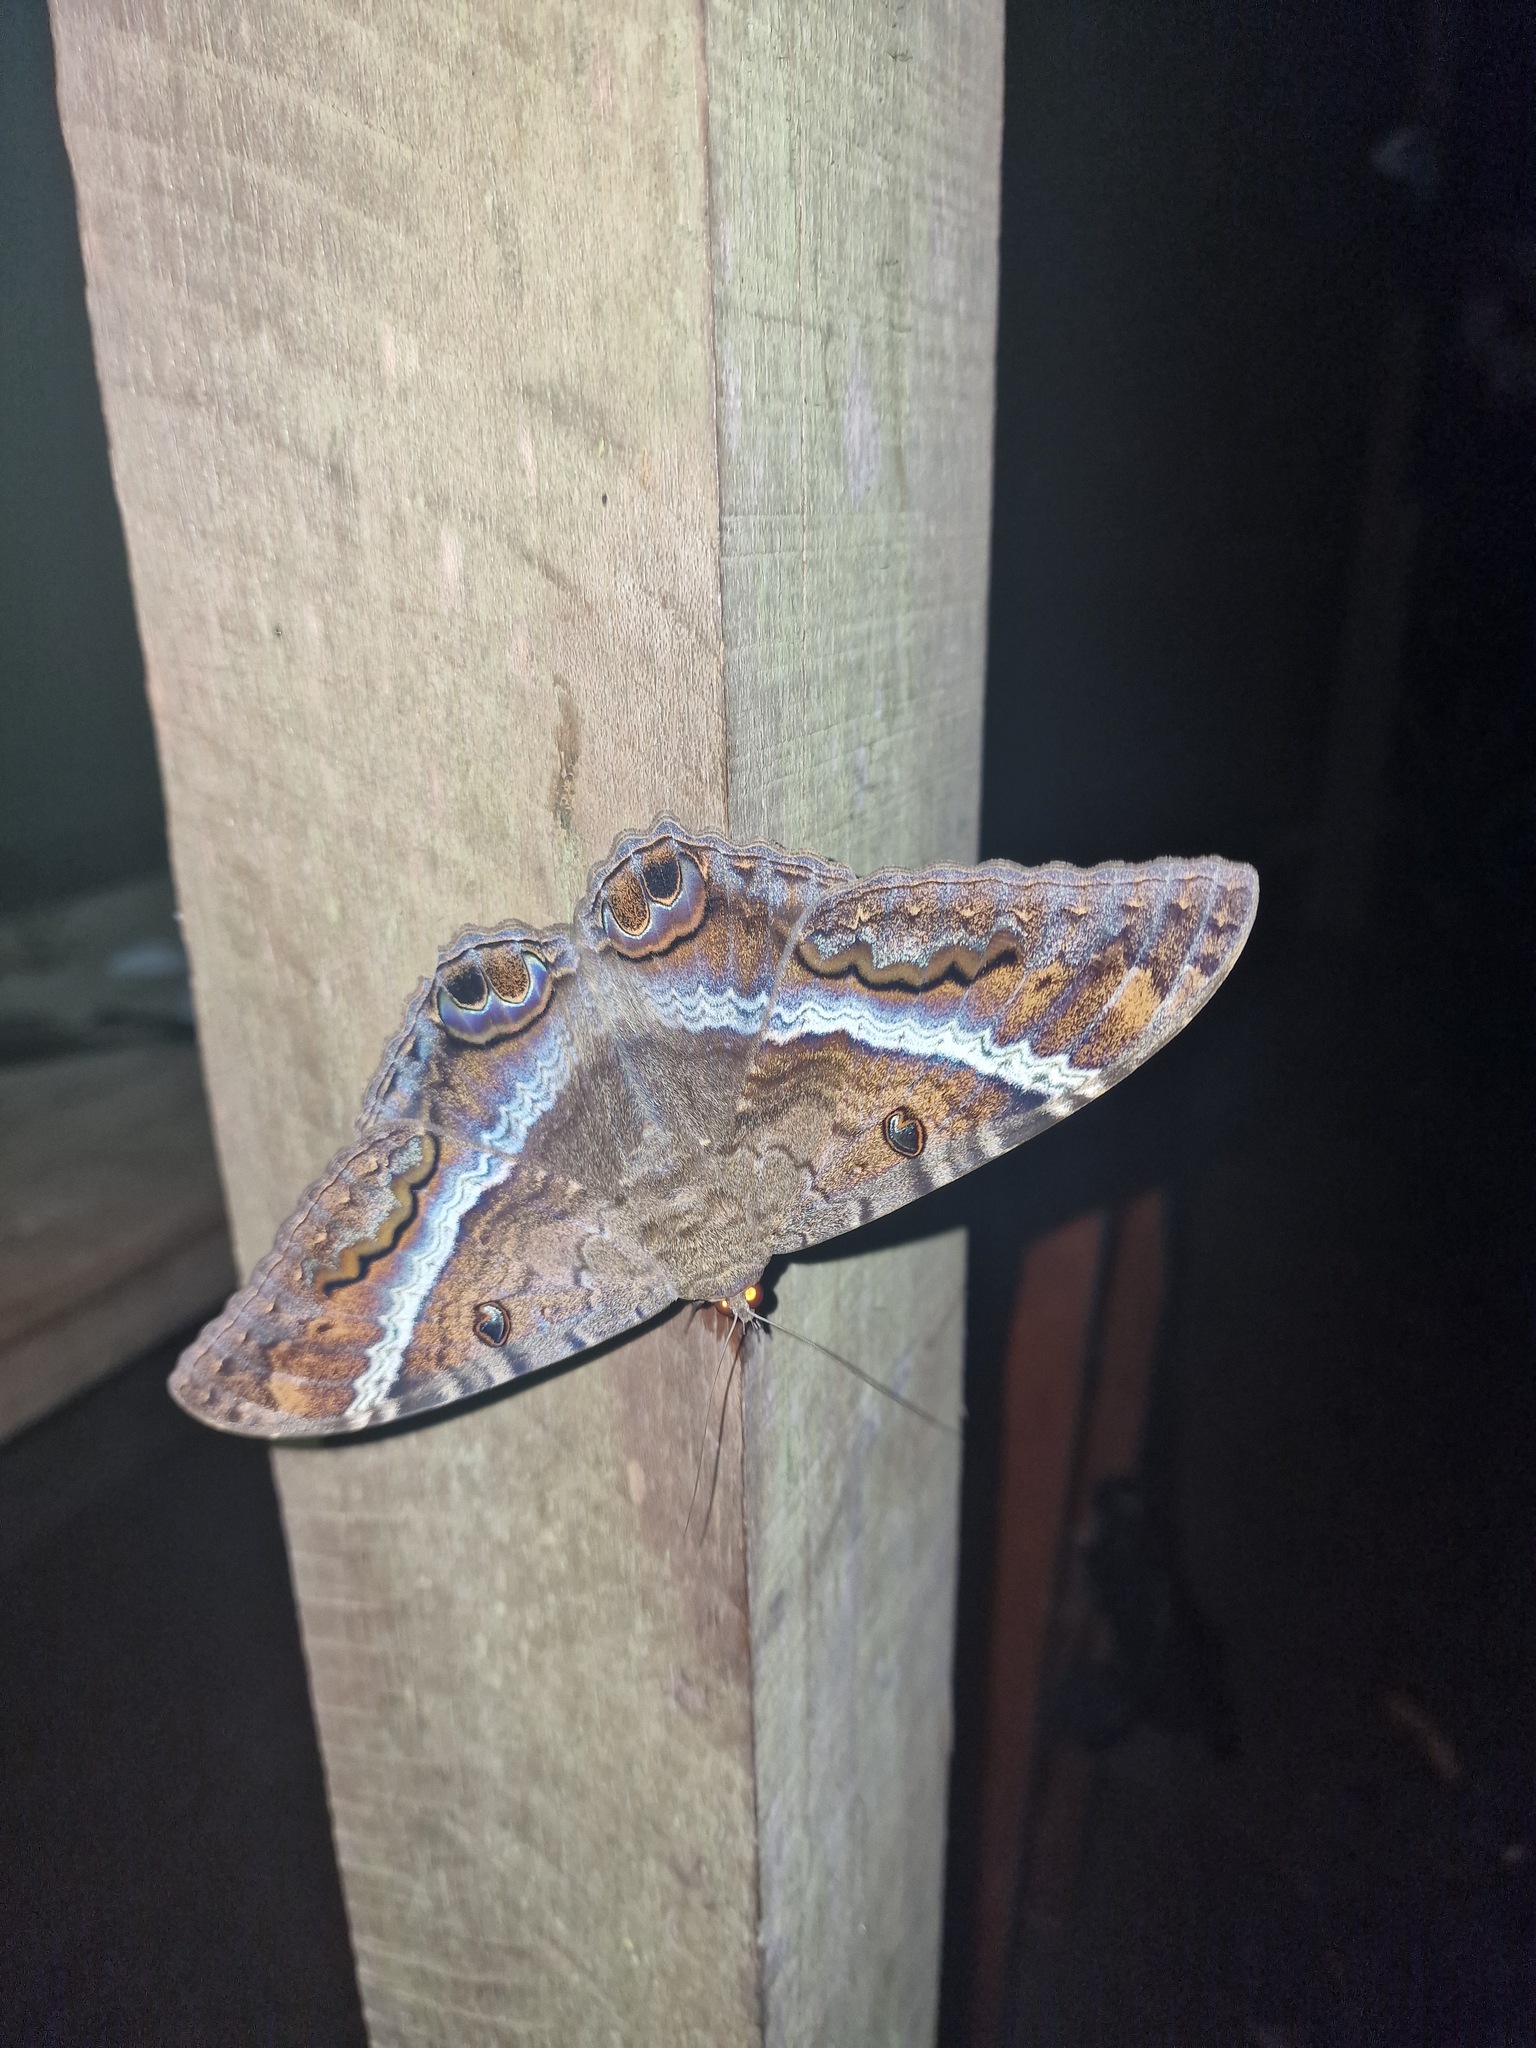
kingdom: Animalia
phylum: Arthropoda
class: Insecta
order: Lepidoptera
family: Erebidae
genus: Ascalapha
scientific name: Ascalapha odorata
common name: Black witch
